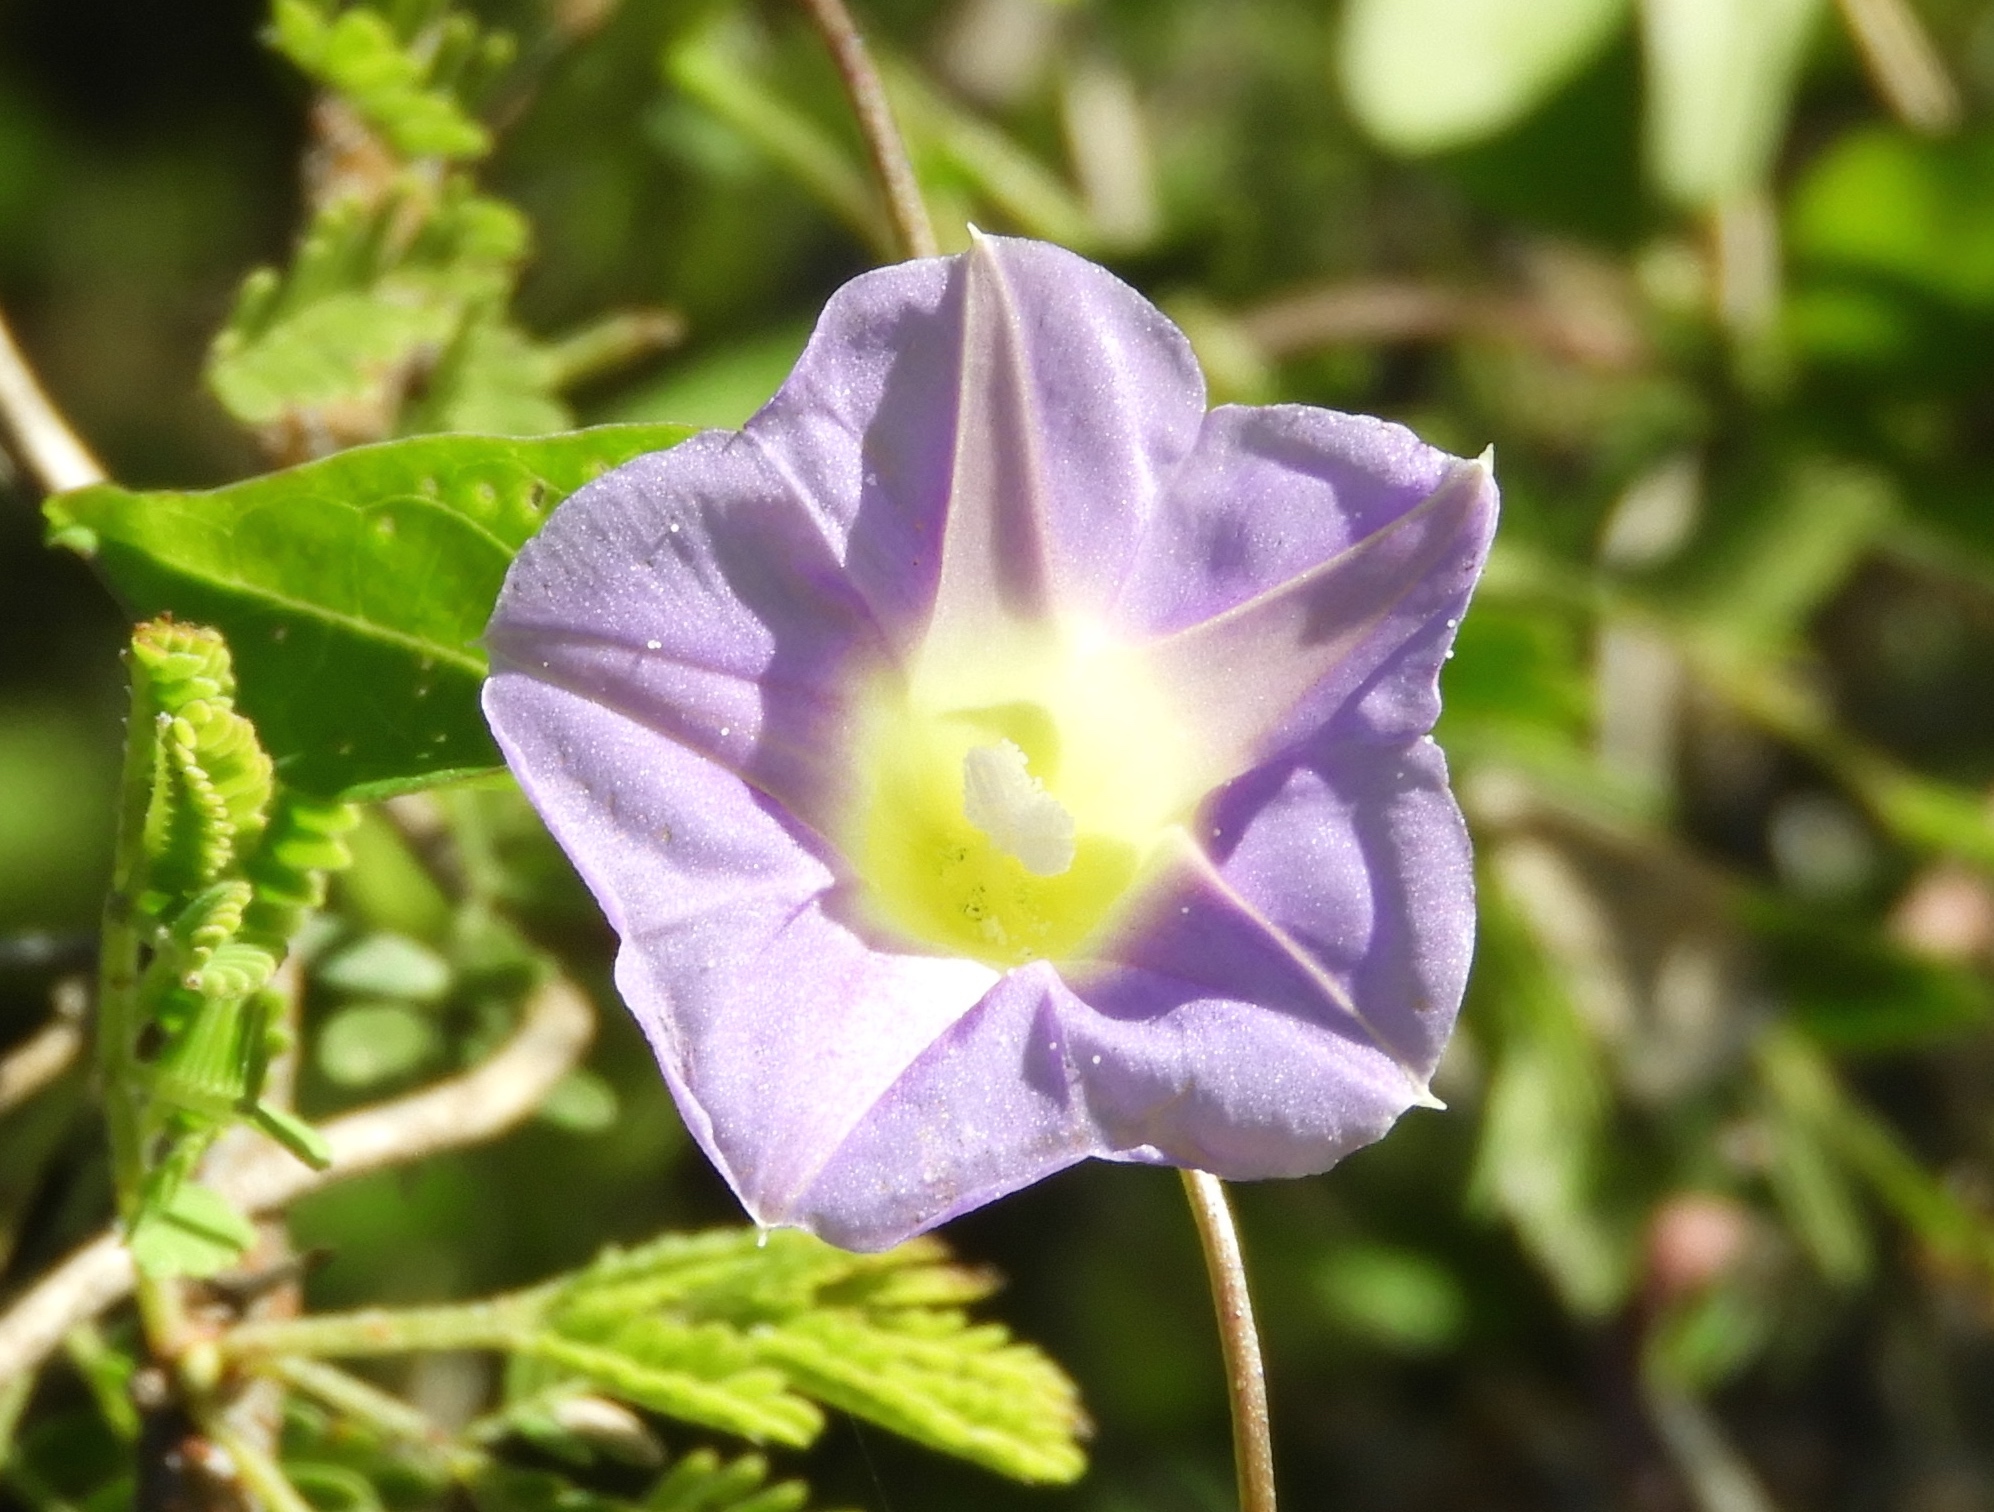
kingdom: Plantae
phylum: Tracheophyta
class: Magnoliopsida
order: Solanales
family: Convolvulaceae
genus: Ipomoea
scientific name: Ipomoea meyeri
